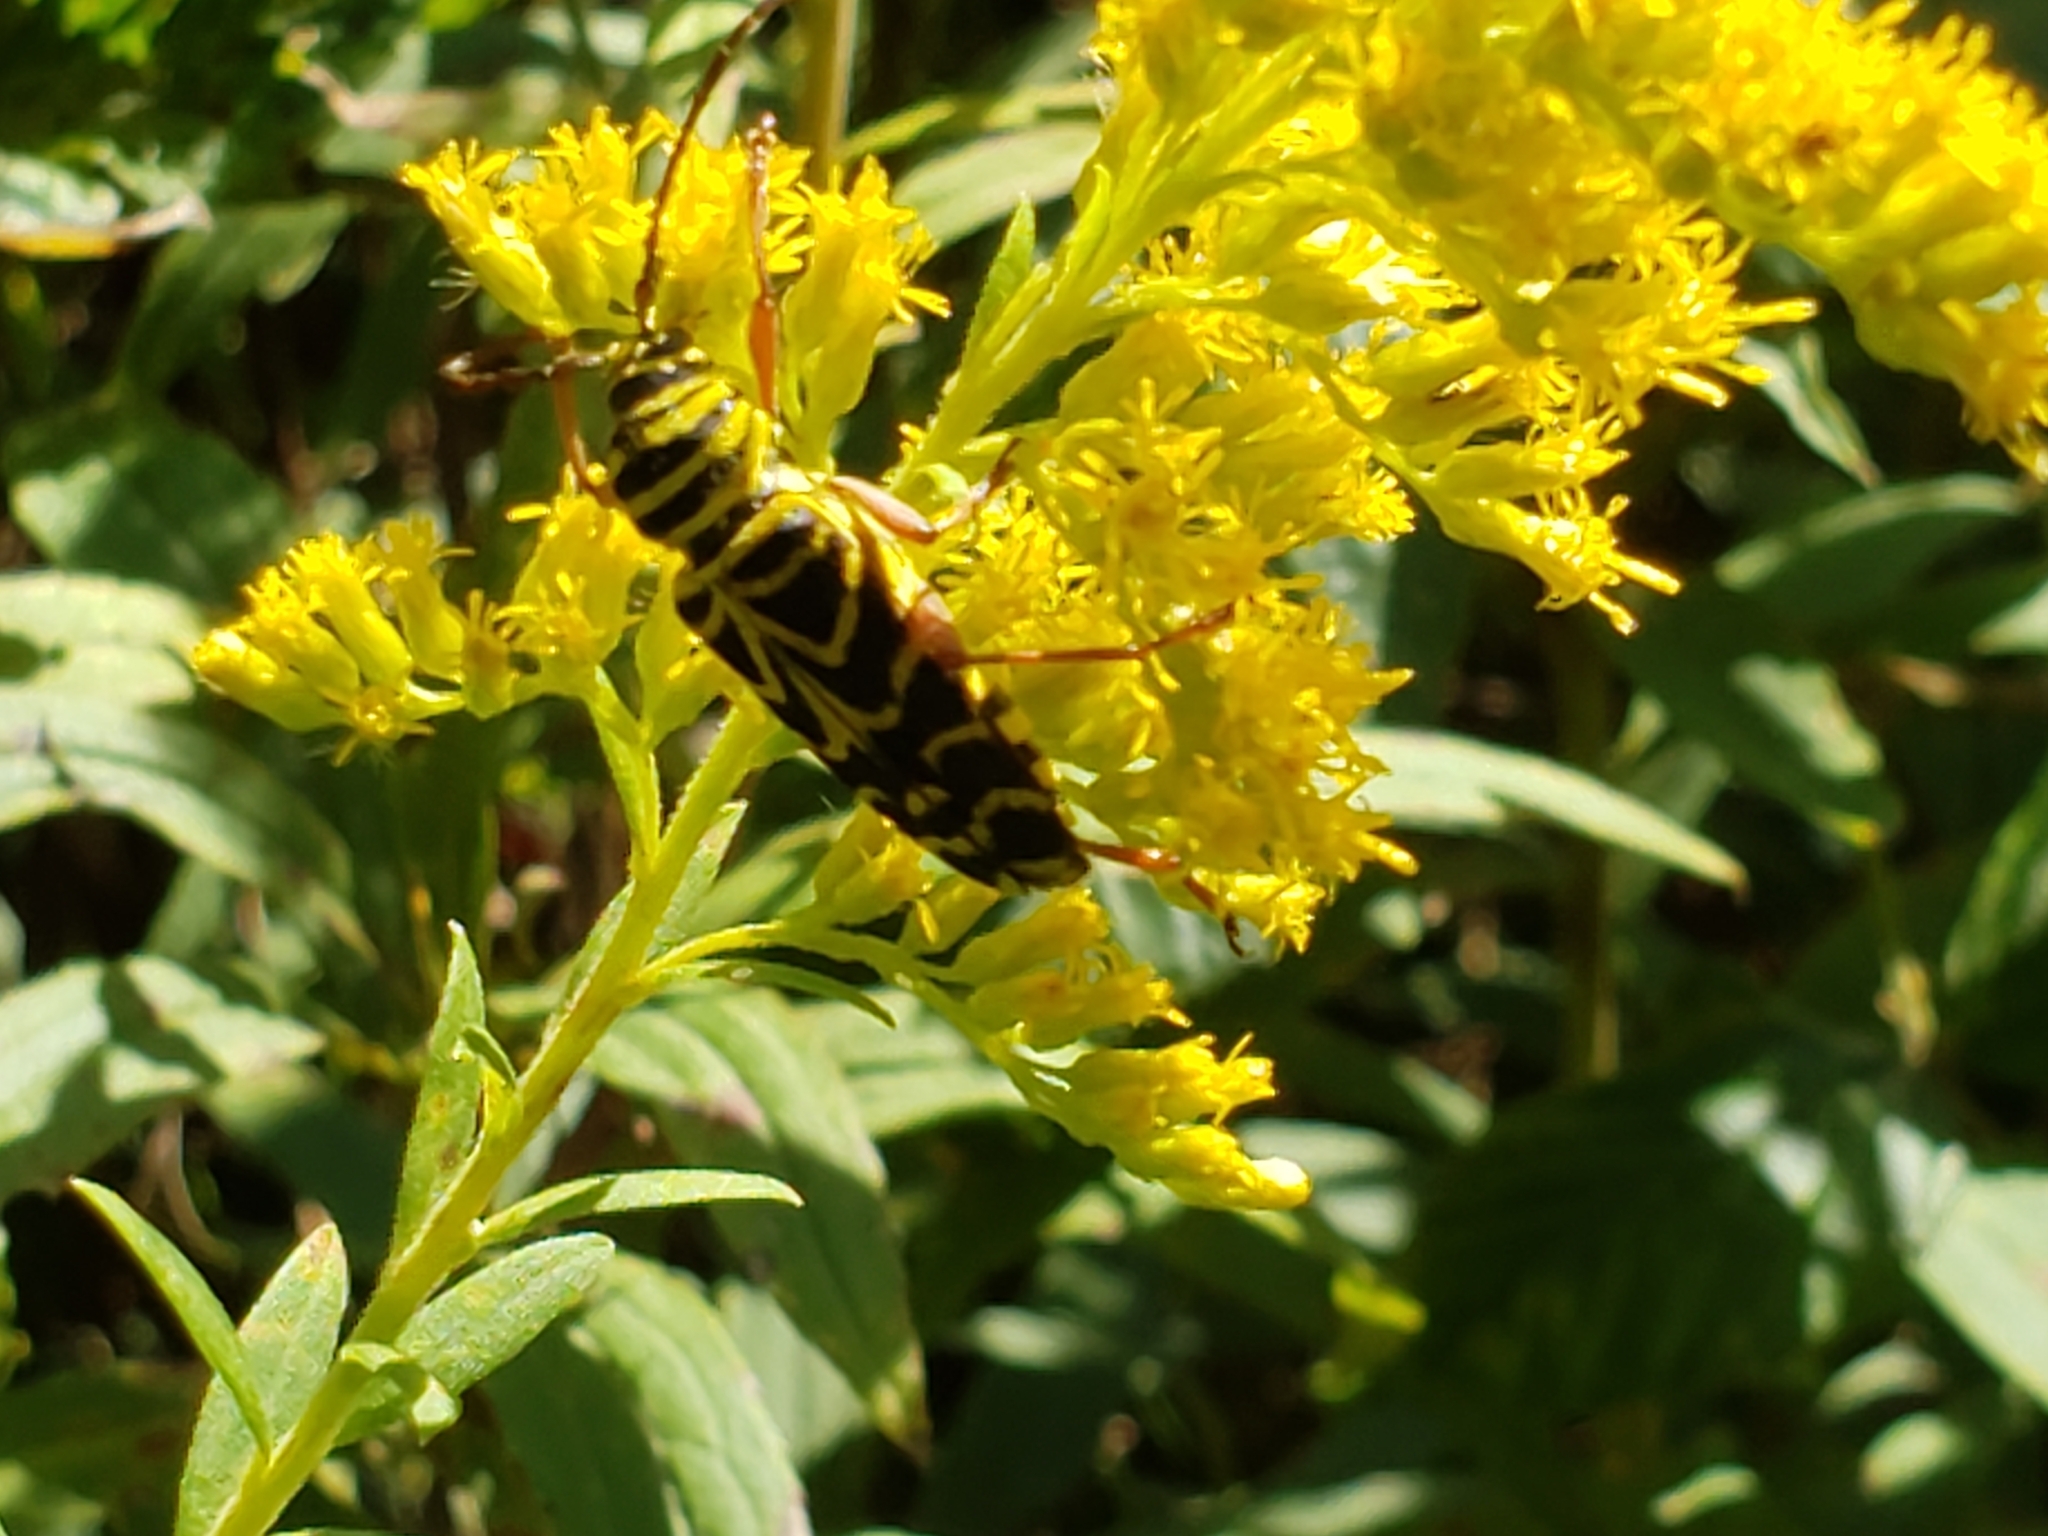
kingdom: Animalia
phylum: Arthropoda
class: Insecta
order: Coleoptera
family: Cerambycidae
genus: Megacyllene
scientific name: Megacyllene robiniae
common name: Locust borer
